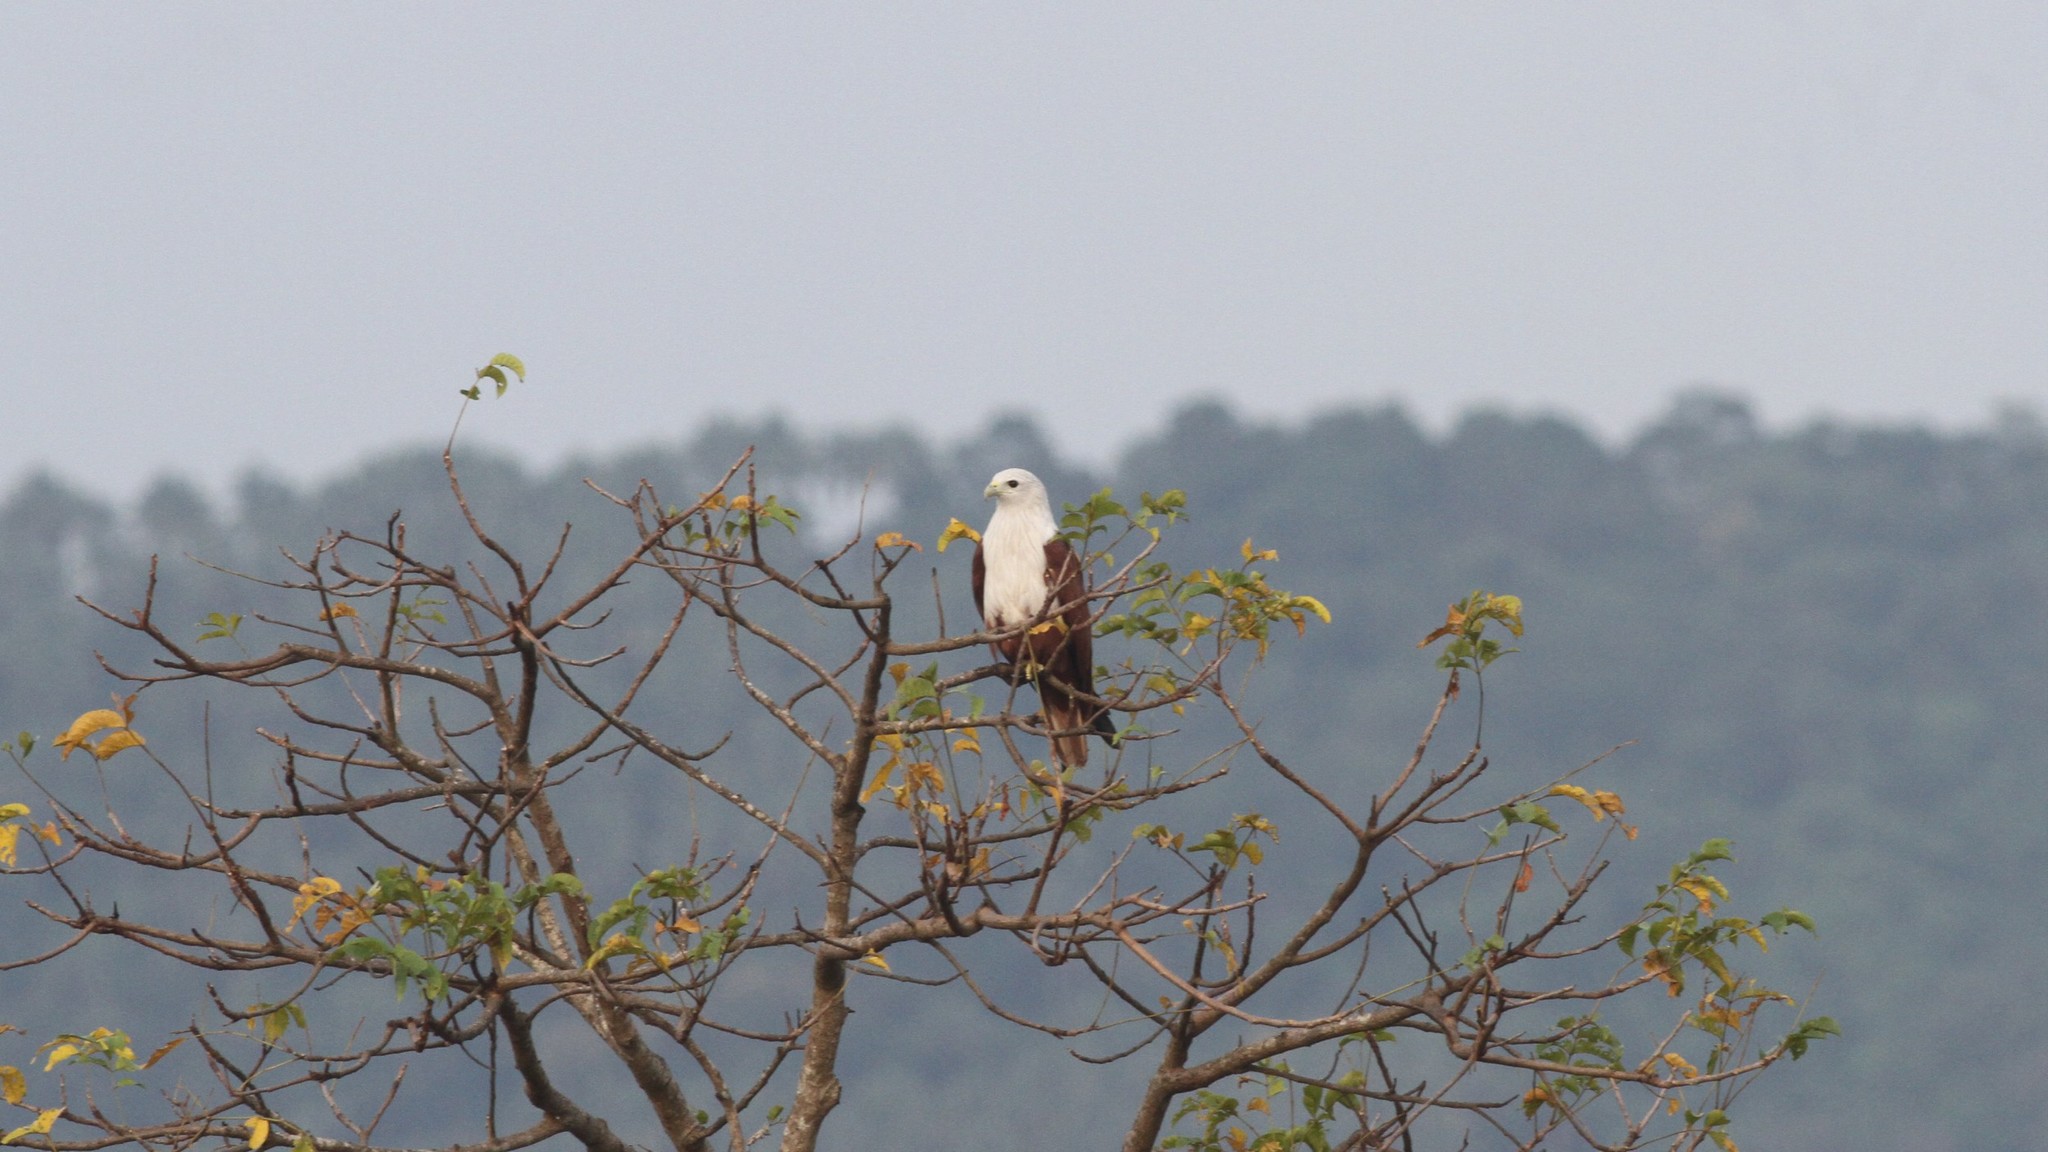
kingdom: Animalia
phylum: Chordata
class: Aves
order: Accipitriformes
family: Accipitridae
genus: Haliastur
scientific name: Haliastur indus
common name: Brahminy kite
